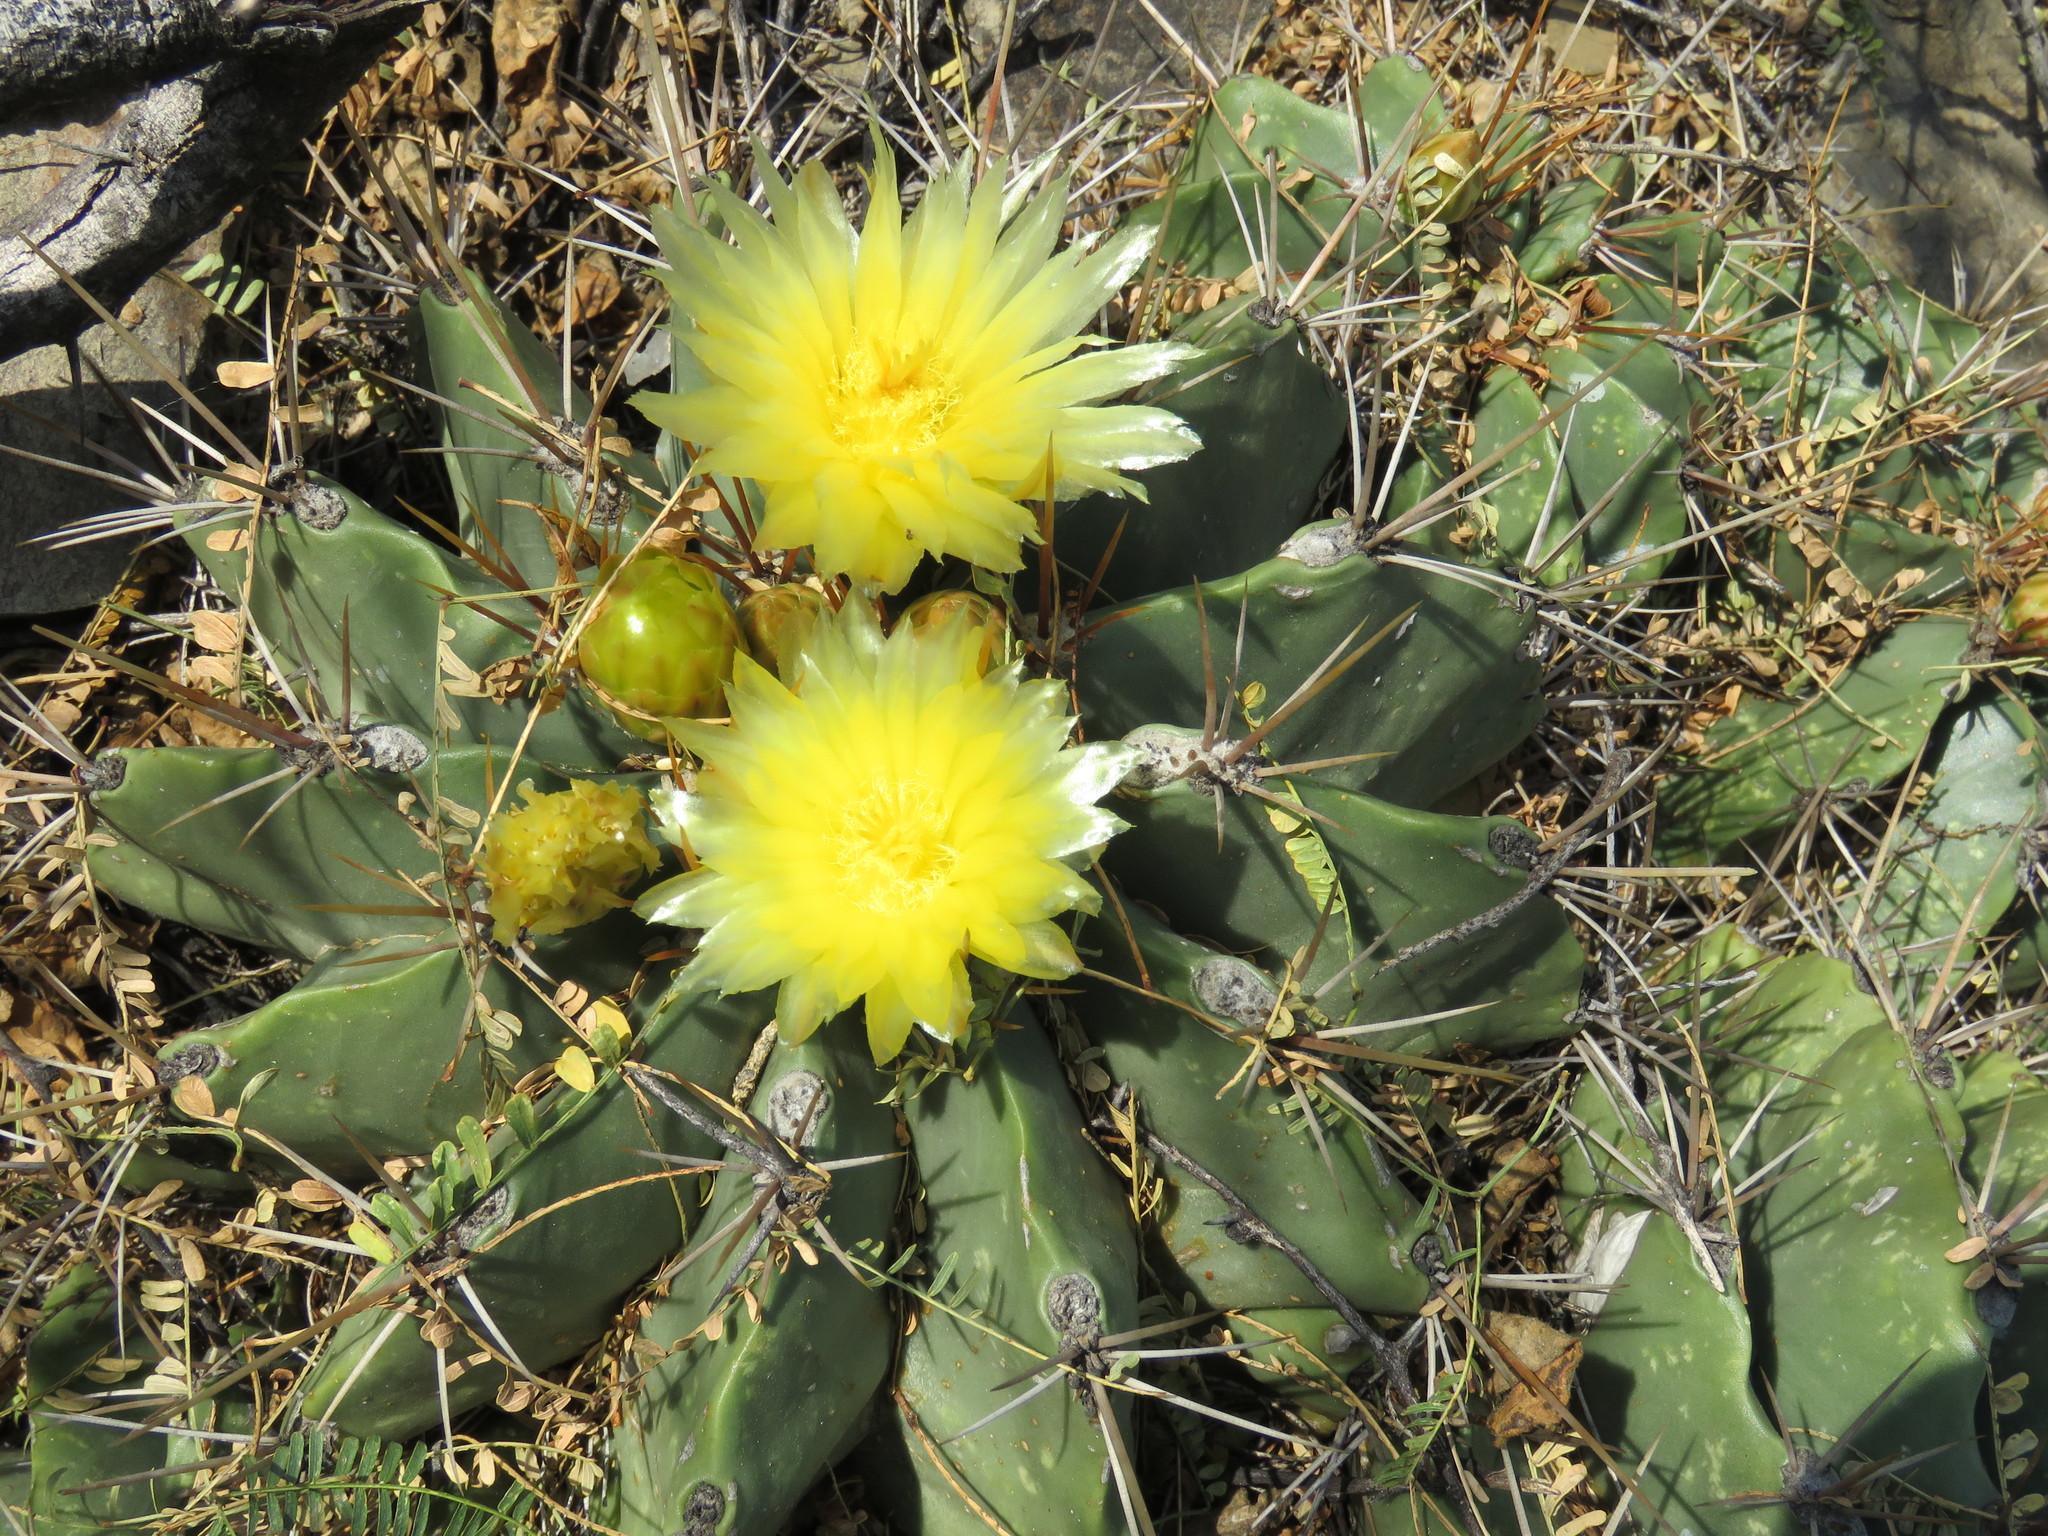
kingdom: Plantae
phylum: Tracheophyta
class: Magnoliopsida
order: Caryophyllales
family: Cactaceae
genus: Parrycactus
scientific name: Parrycactus echidne
